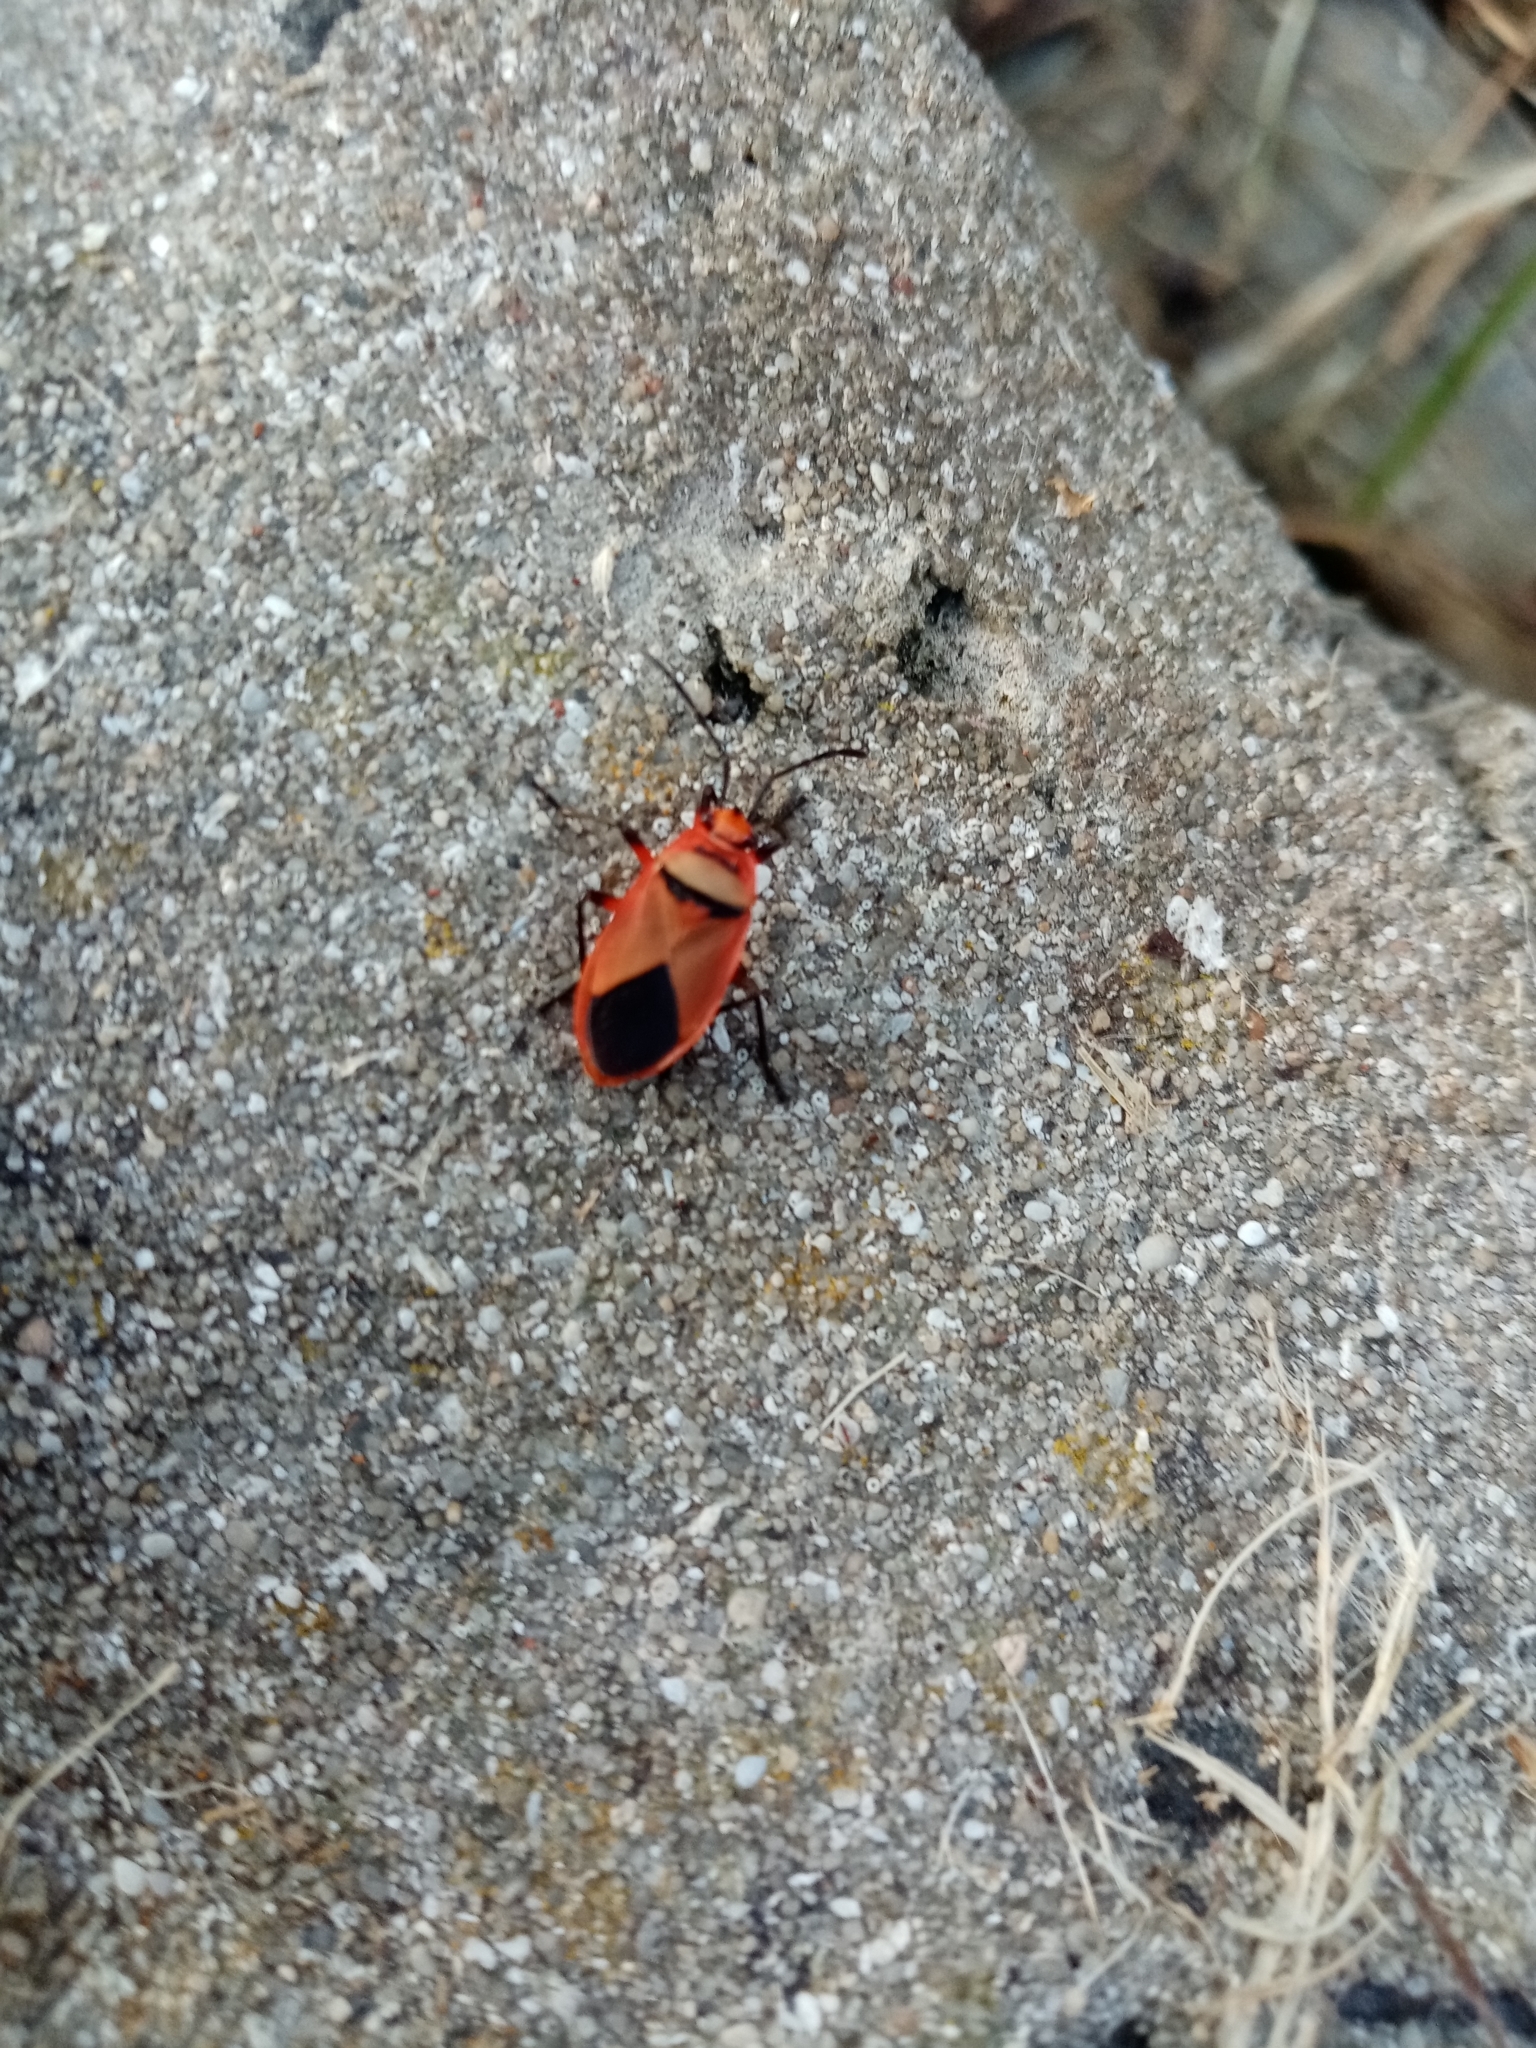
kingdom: Animalia
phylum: Arthropoda
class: Insecta
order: Hemiptera
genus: Cenaeus
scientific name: Cenaeus
